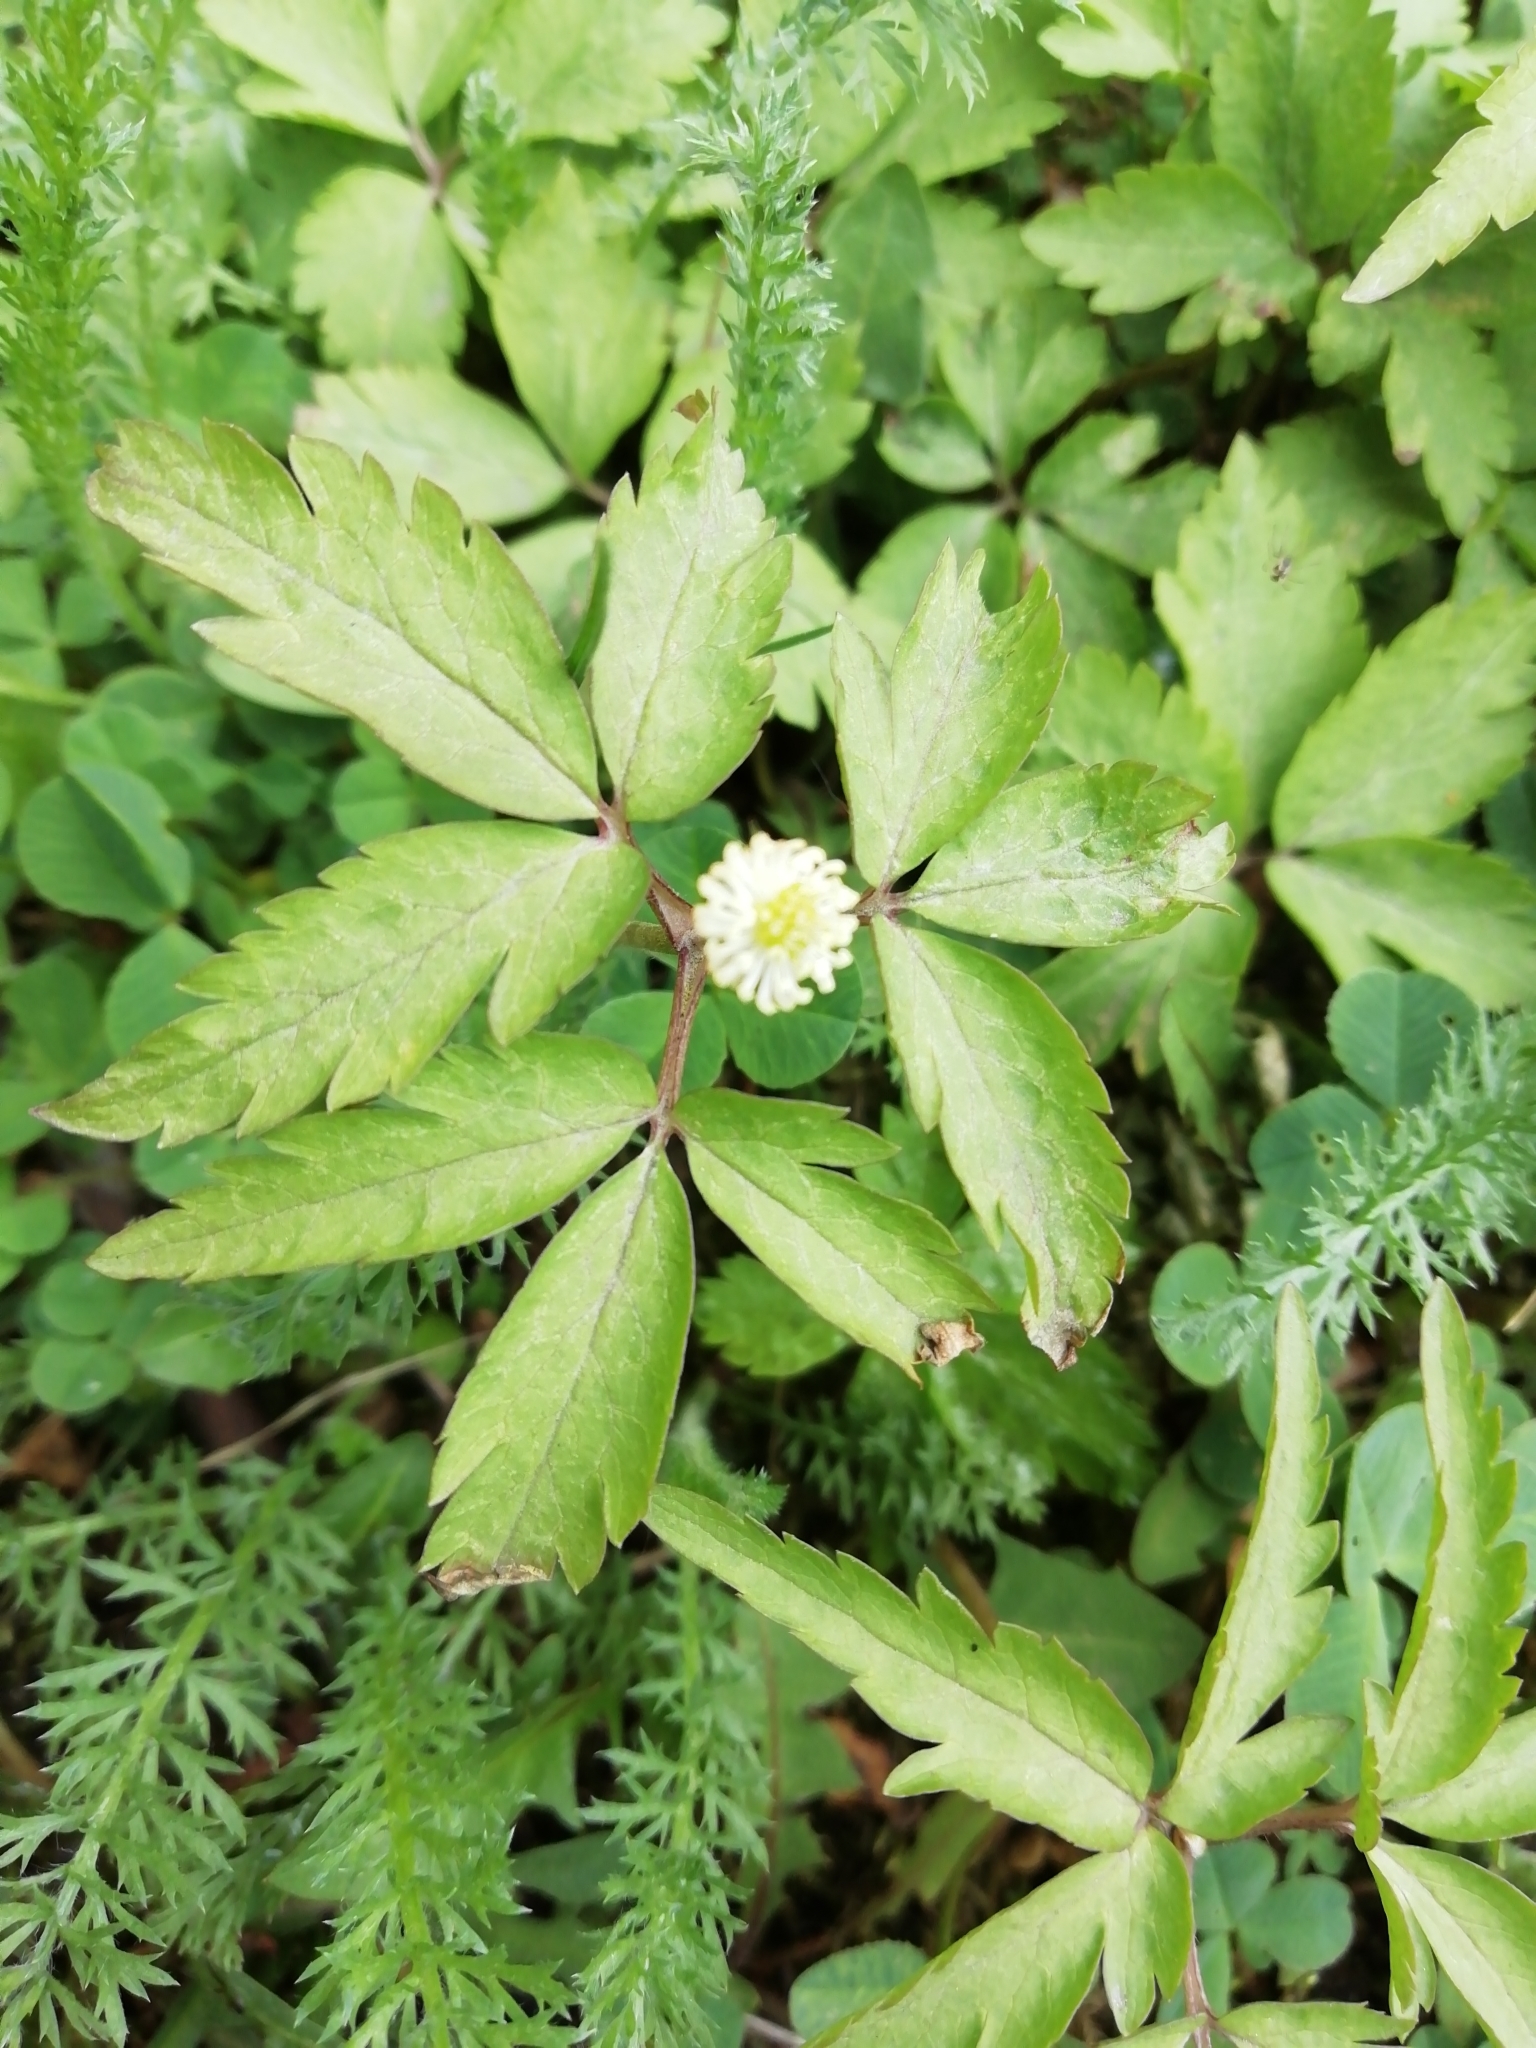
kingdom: Plantae
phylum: Tracheophyta
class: Magnoliopsida
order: Ranunculales
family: Ranunculaceae
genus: Anemone
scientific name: Anemone reflexa
